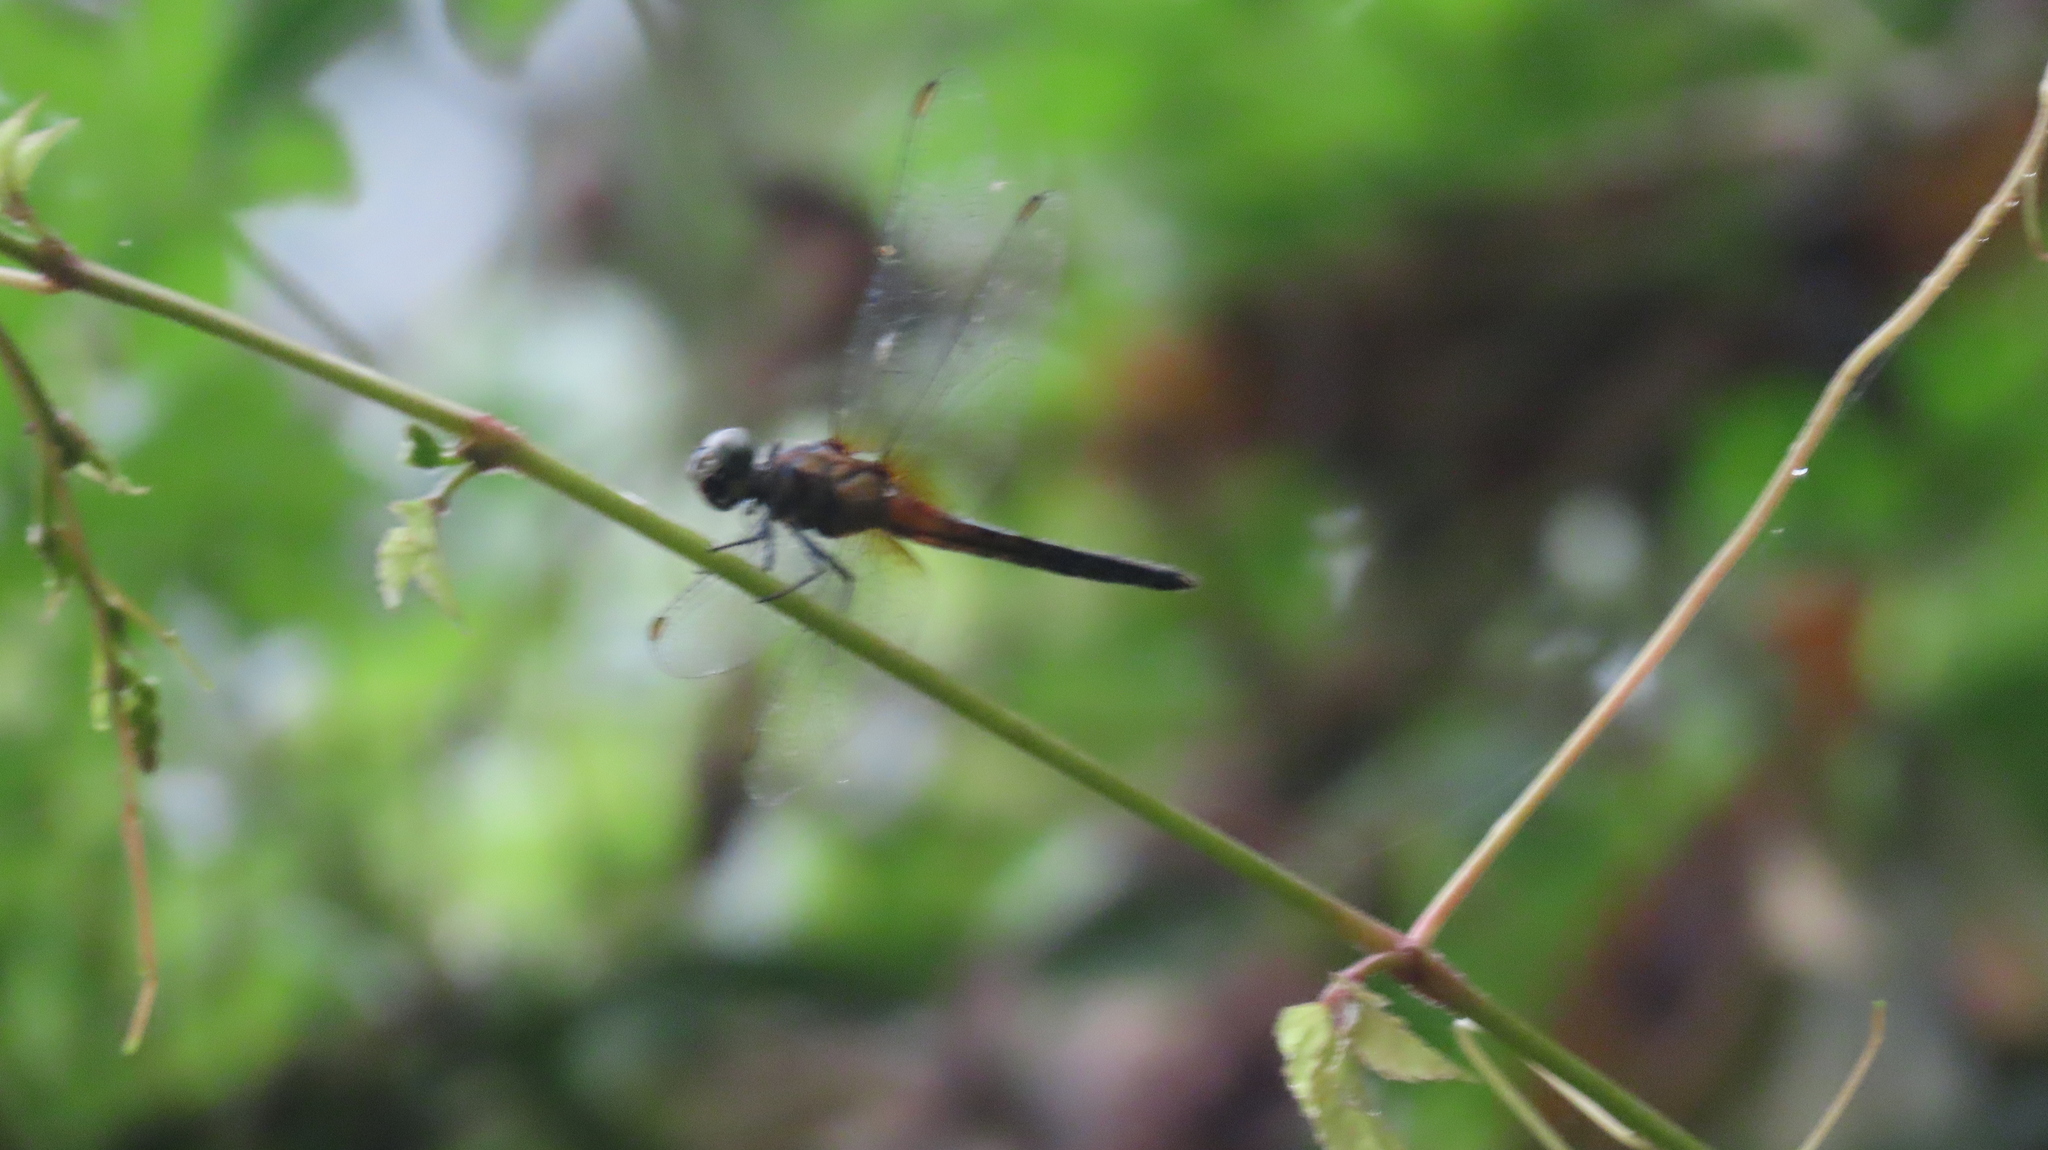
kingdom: Animalia
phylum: Arthropoda
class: Insecta
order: Odonata
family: Libellulidae
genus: Brachydiplax
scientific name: Brachydiplax chalybea
